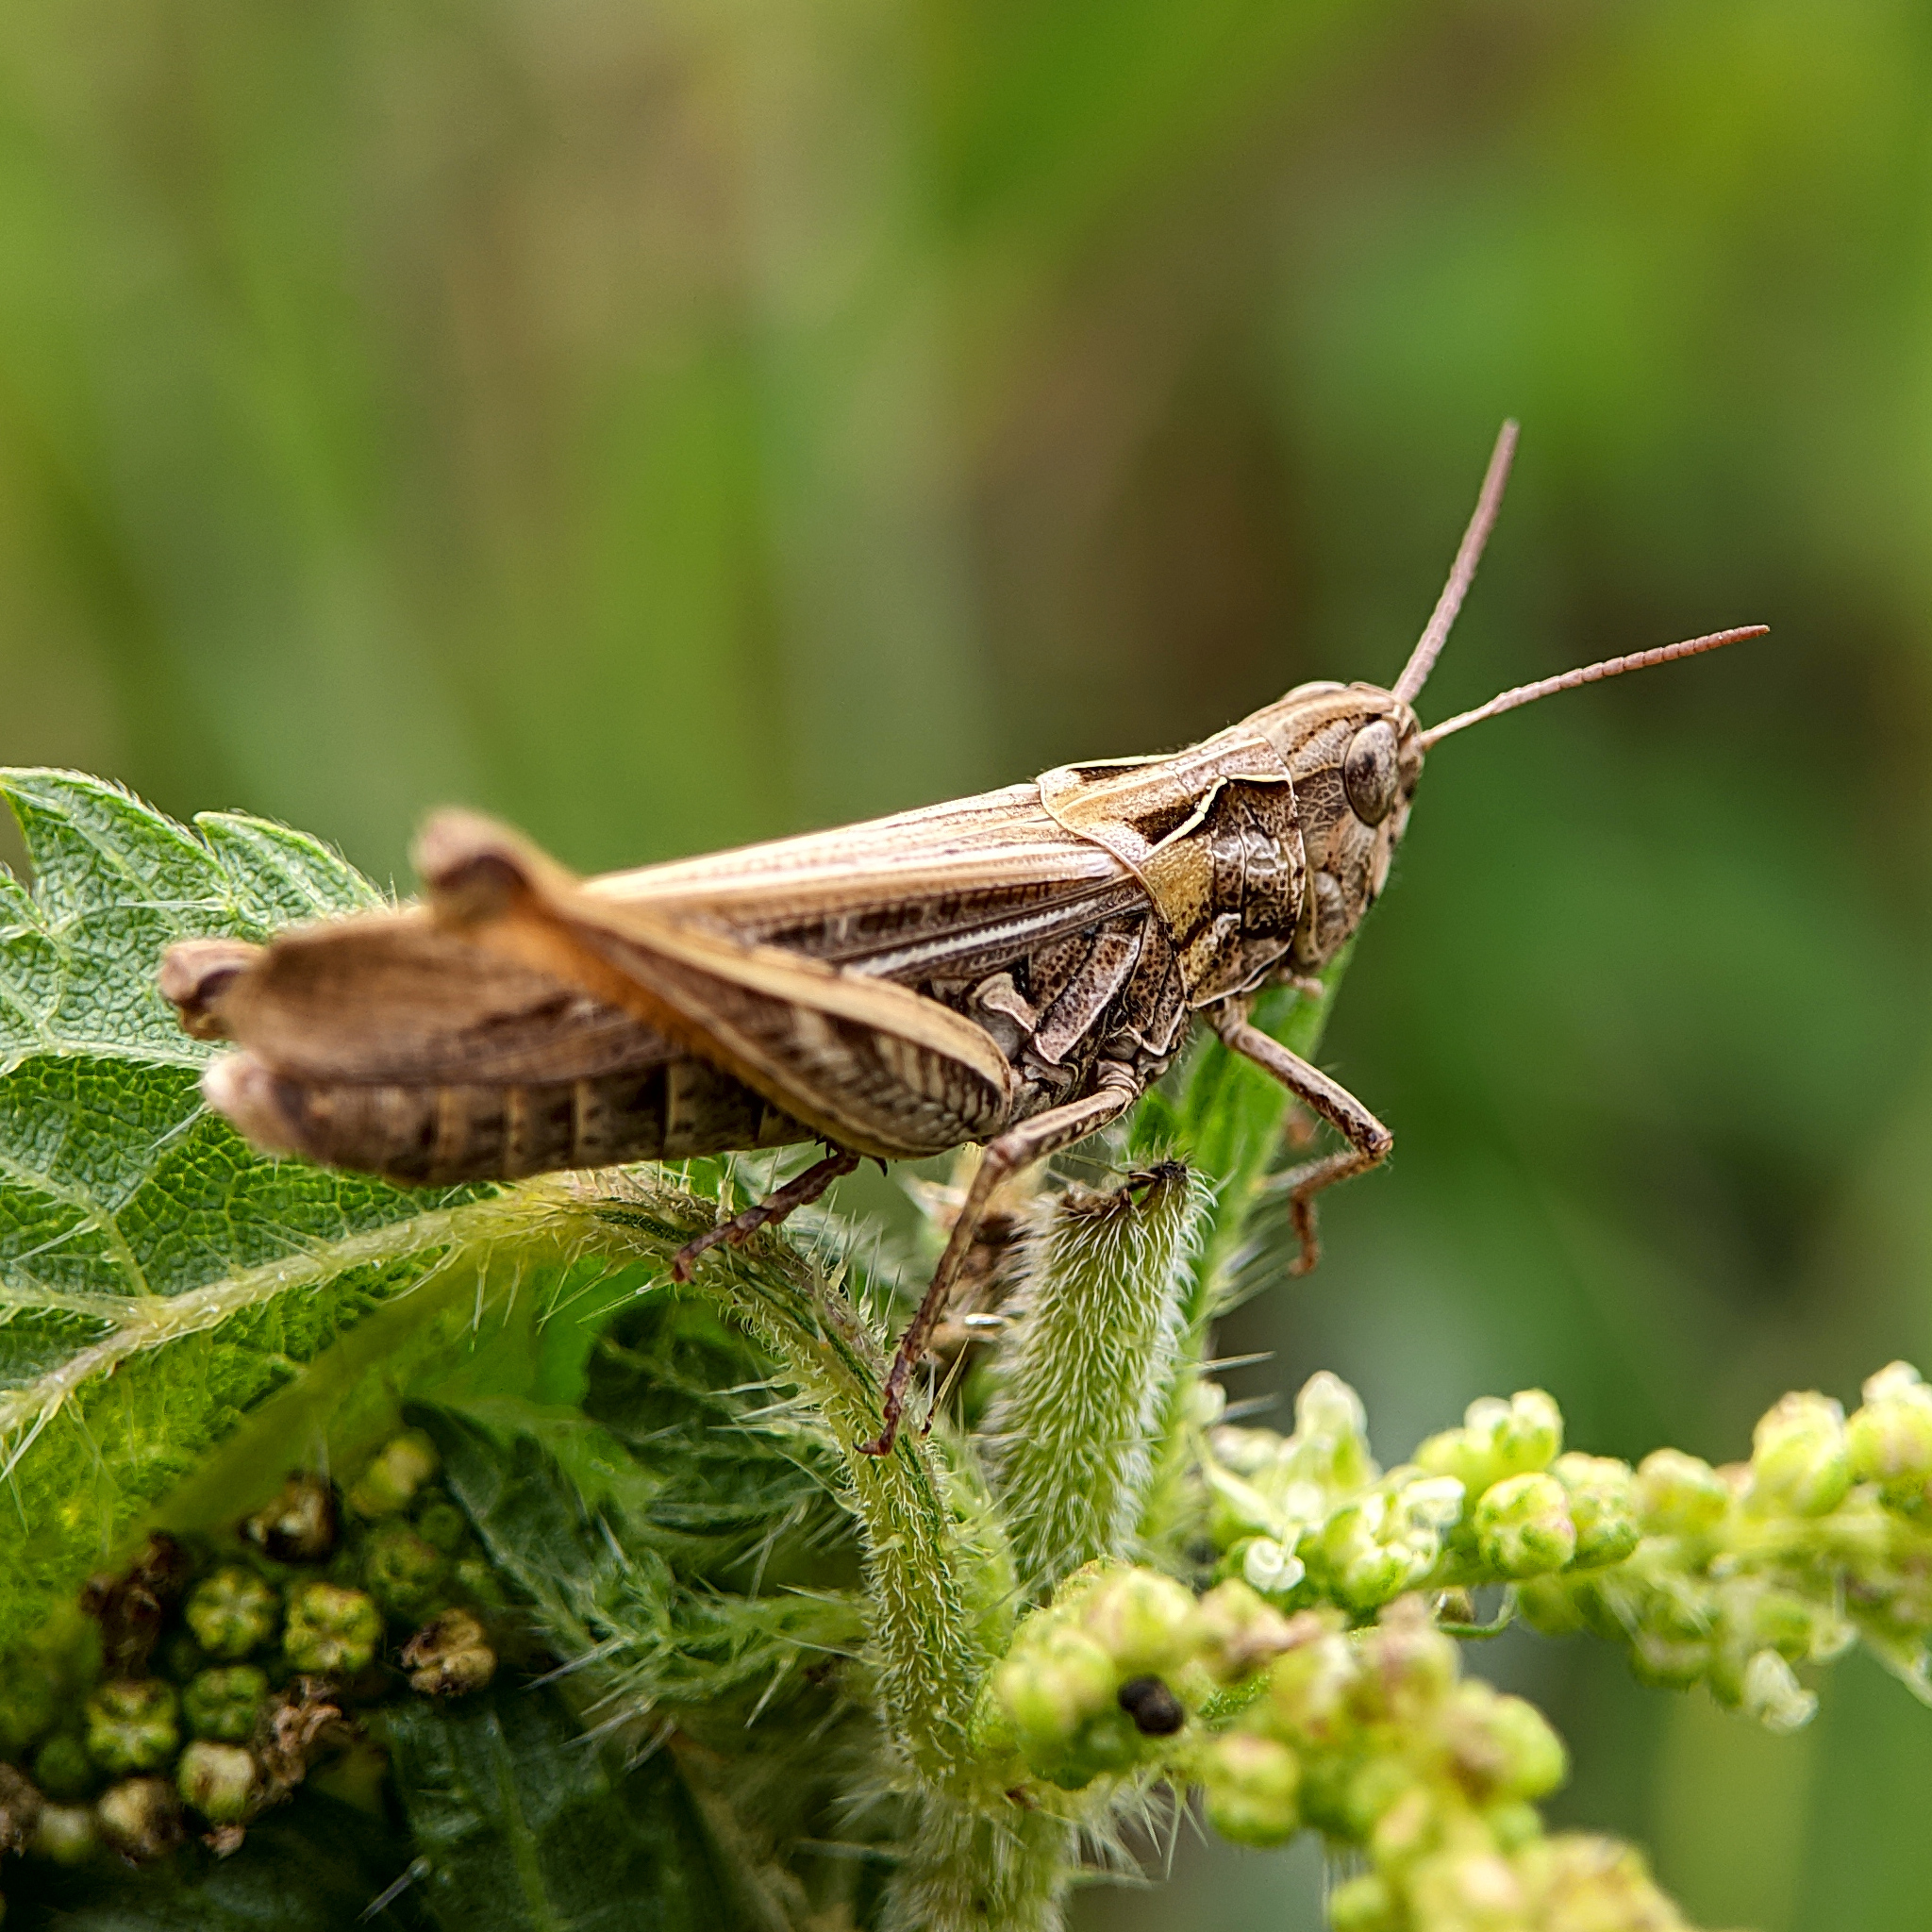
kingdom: Animalia
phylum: Arthropoda
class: Insecta
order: Orthoptera
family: Acrididae
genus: Glyptobothrus
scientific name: Glyptobothrus
